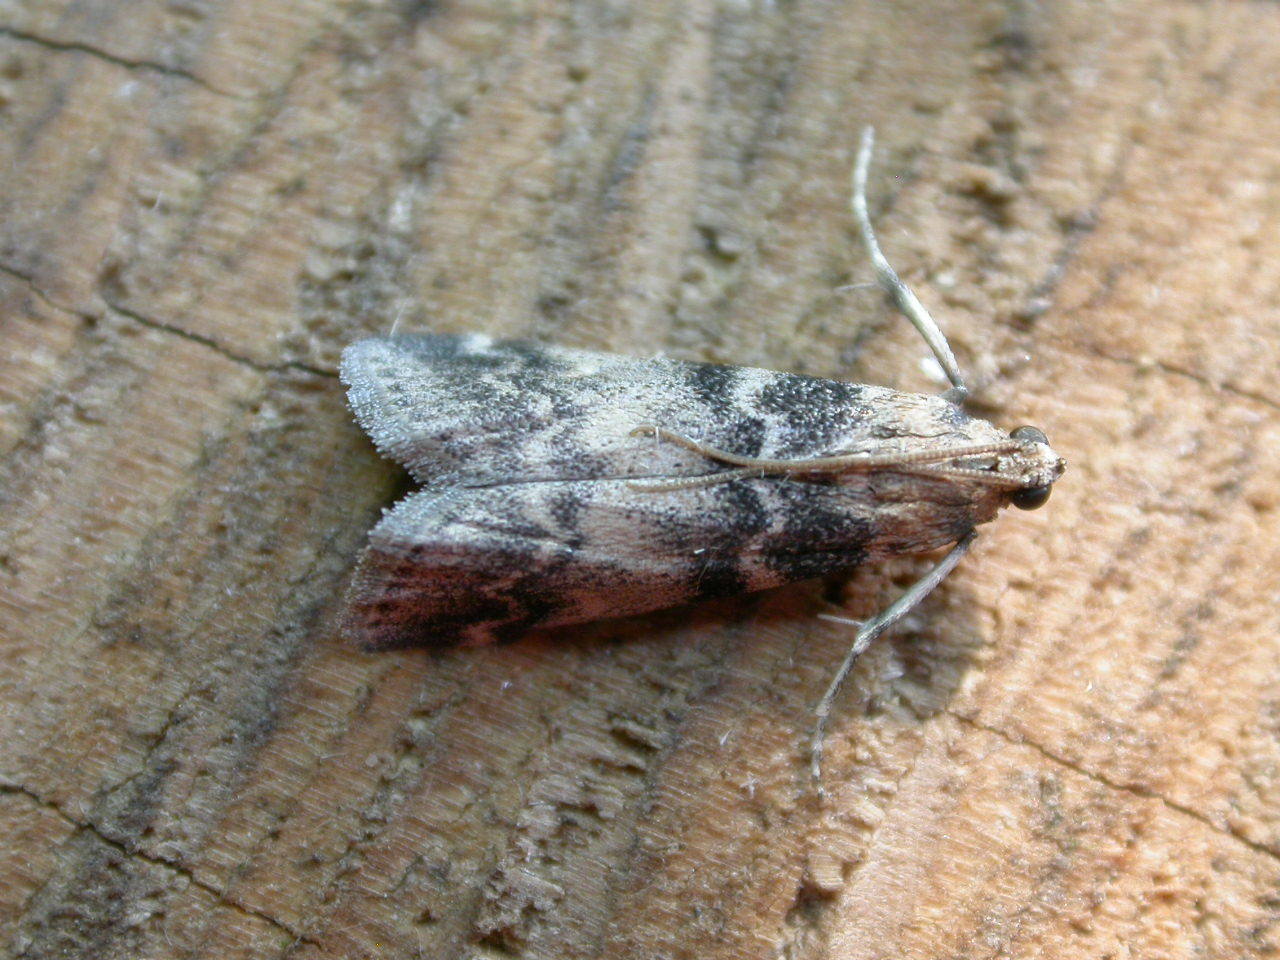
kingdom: Animalia
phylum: Arthropoda
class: Insecta
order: Lepidoptera
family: Pyralidae
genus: Euzophera
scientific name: Euzophera pinguis
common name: Ash-bark knot-horn
